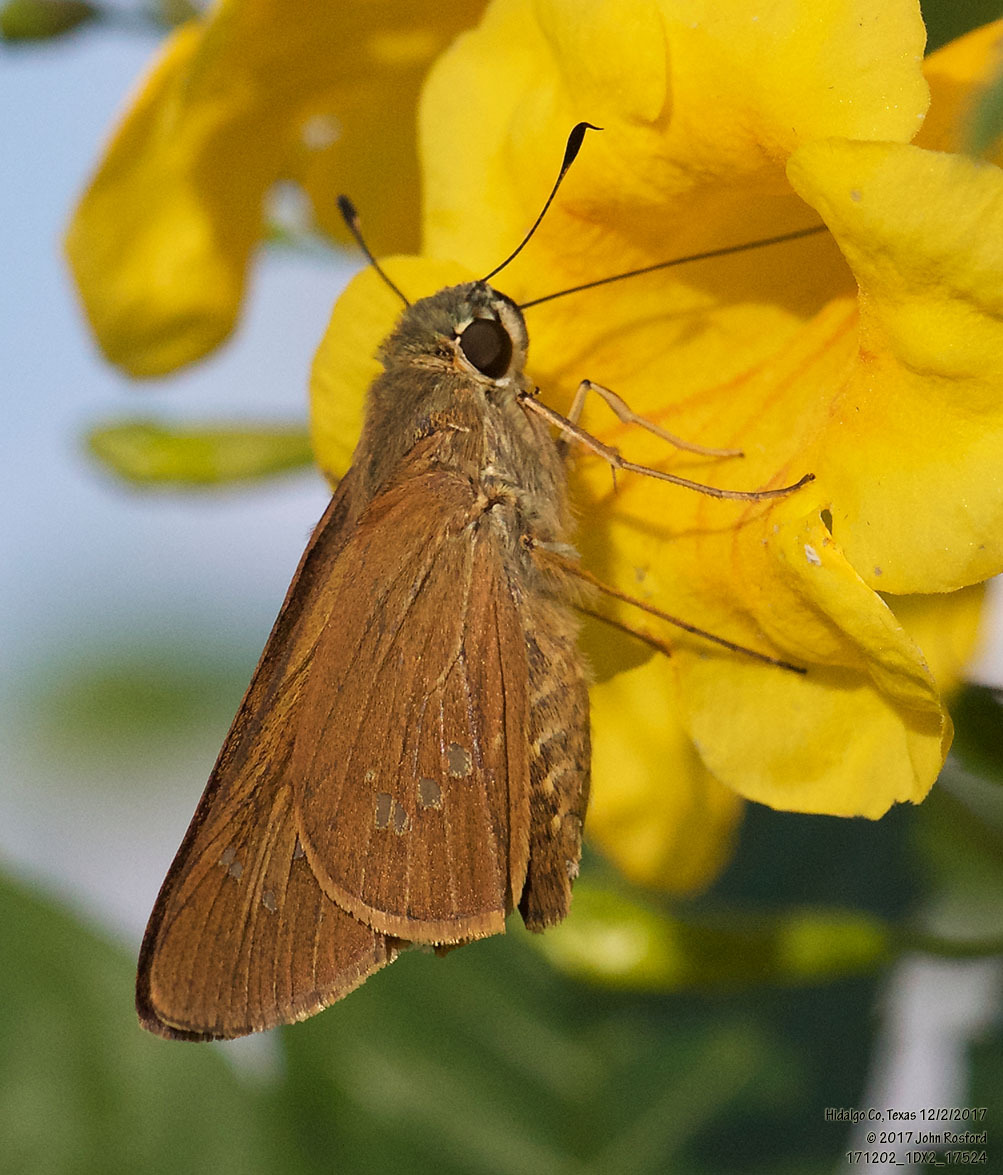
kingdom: Animalia
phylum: Arthropoda
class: Insecta
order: Lepidoptera
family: Hesperiidae
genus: Calpodes
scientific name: Calpodes ethlius
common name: Brazilian skipper
